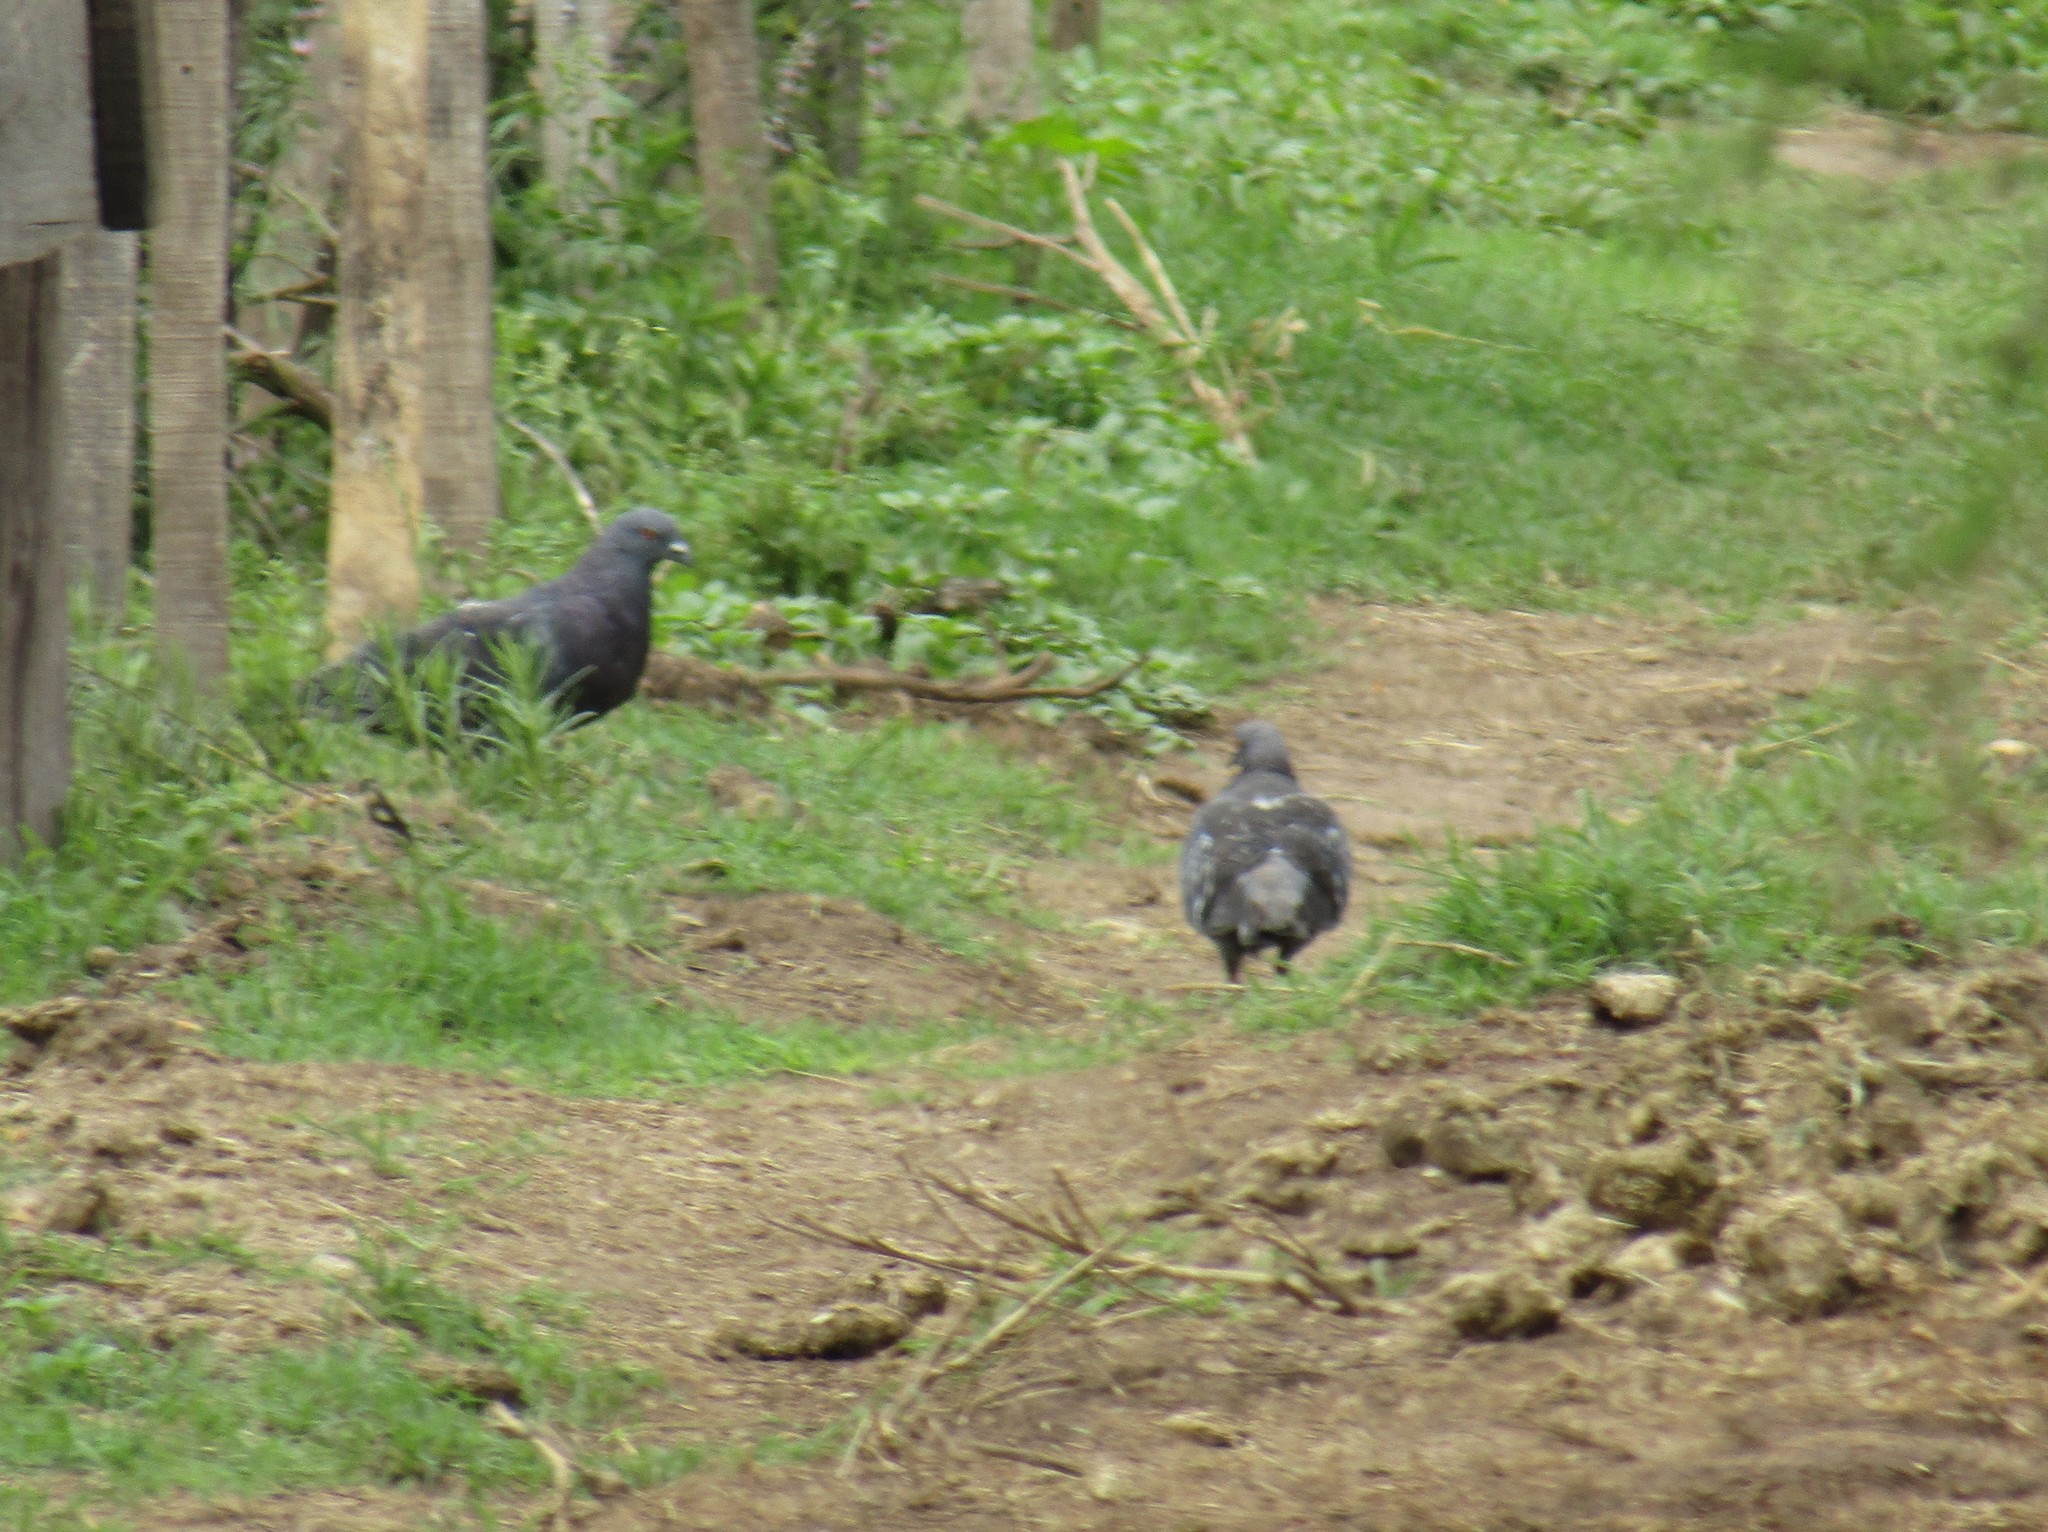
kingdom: Animalia
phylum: Chordata
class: Aves
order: Columbiformes
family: Columbidae
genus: Columba
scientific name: Columba livia
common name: Rock pigeon
